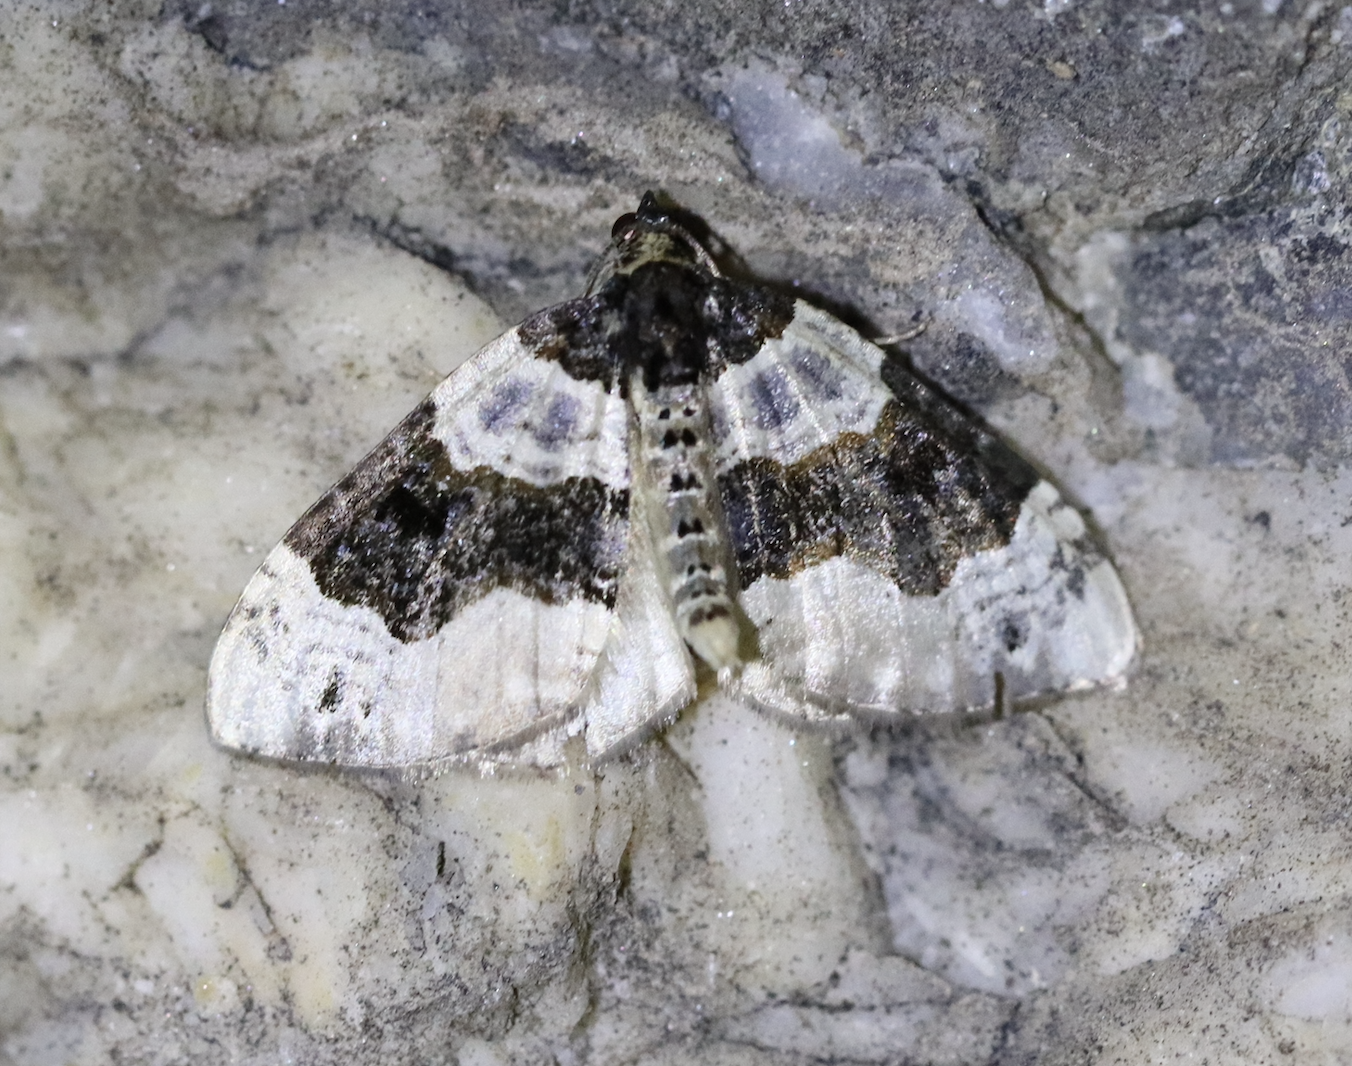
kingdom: Animalia
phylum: Arthropoda
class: Insecta
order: Lepidoptera
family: Geometridae
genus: Cosmorhoe
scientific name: Cosmorhoe ocellata
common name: Purple bar
